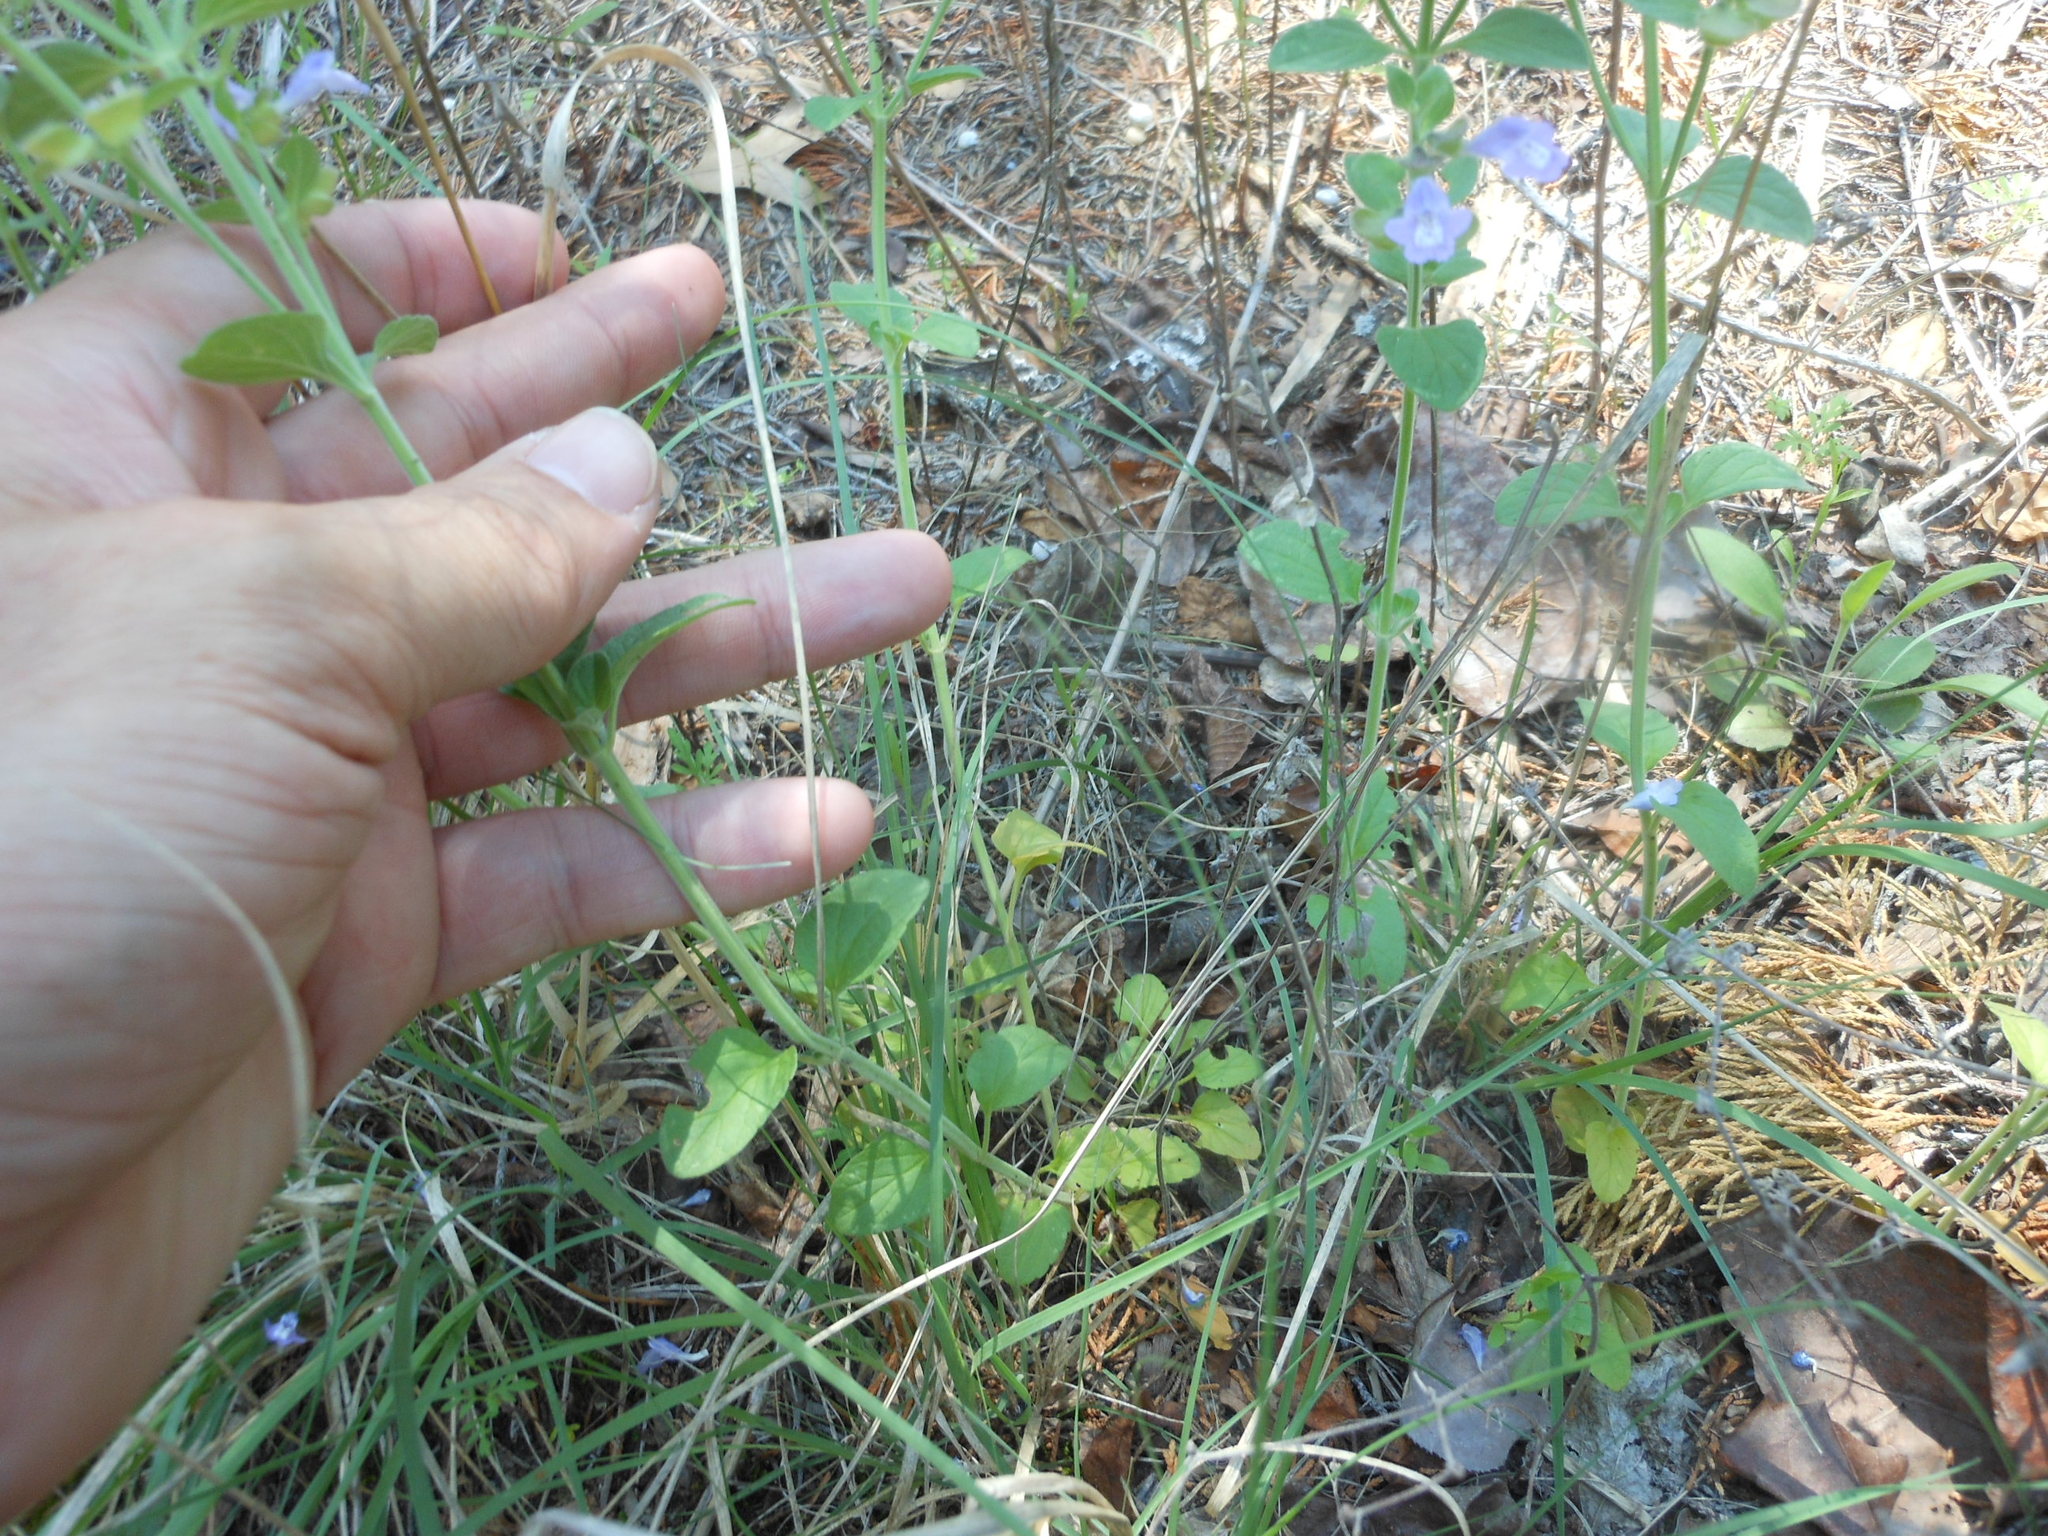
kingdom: Plantae
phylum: Tracheophyta
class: Magnoliopsida
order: Lamiales
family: Lamiaceae
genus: Scutellaria
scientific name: Scutellaria drummondii
